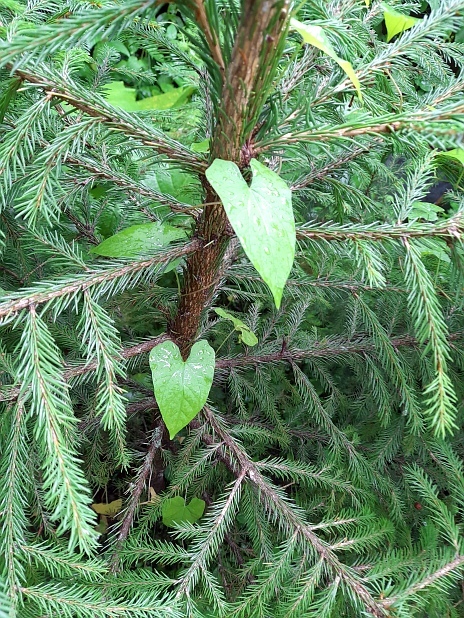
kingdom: Plantae
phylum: Tracheophyta
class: Magnoliopsida
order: Solanales
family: Convolvulaceae
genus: Calystegia
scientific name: Calystegia sepium
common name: Hedge bindweed
